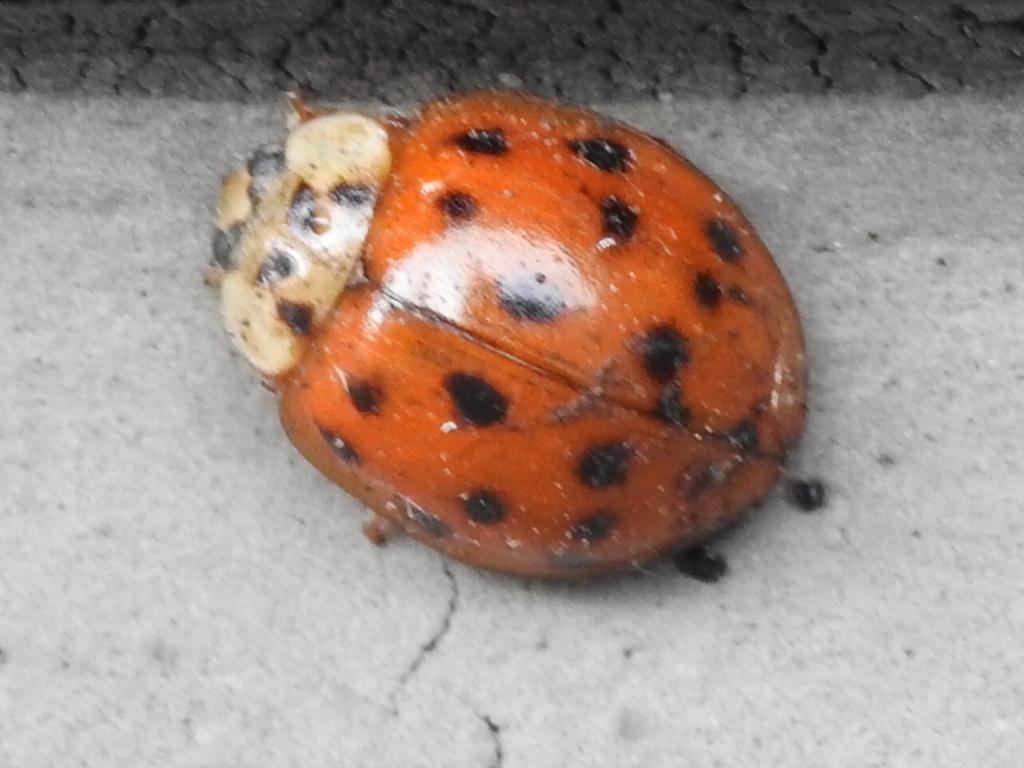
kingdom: Animalia
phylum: Arthropoda
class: Insecta
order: Coleoptera
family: Coccinellidae
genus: Harmonia
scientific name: Harmonia axyridis
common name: Harlequin ladybird
